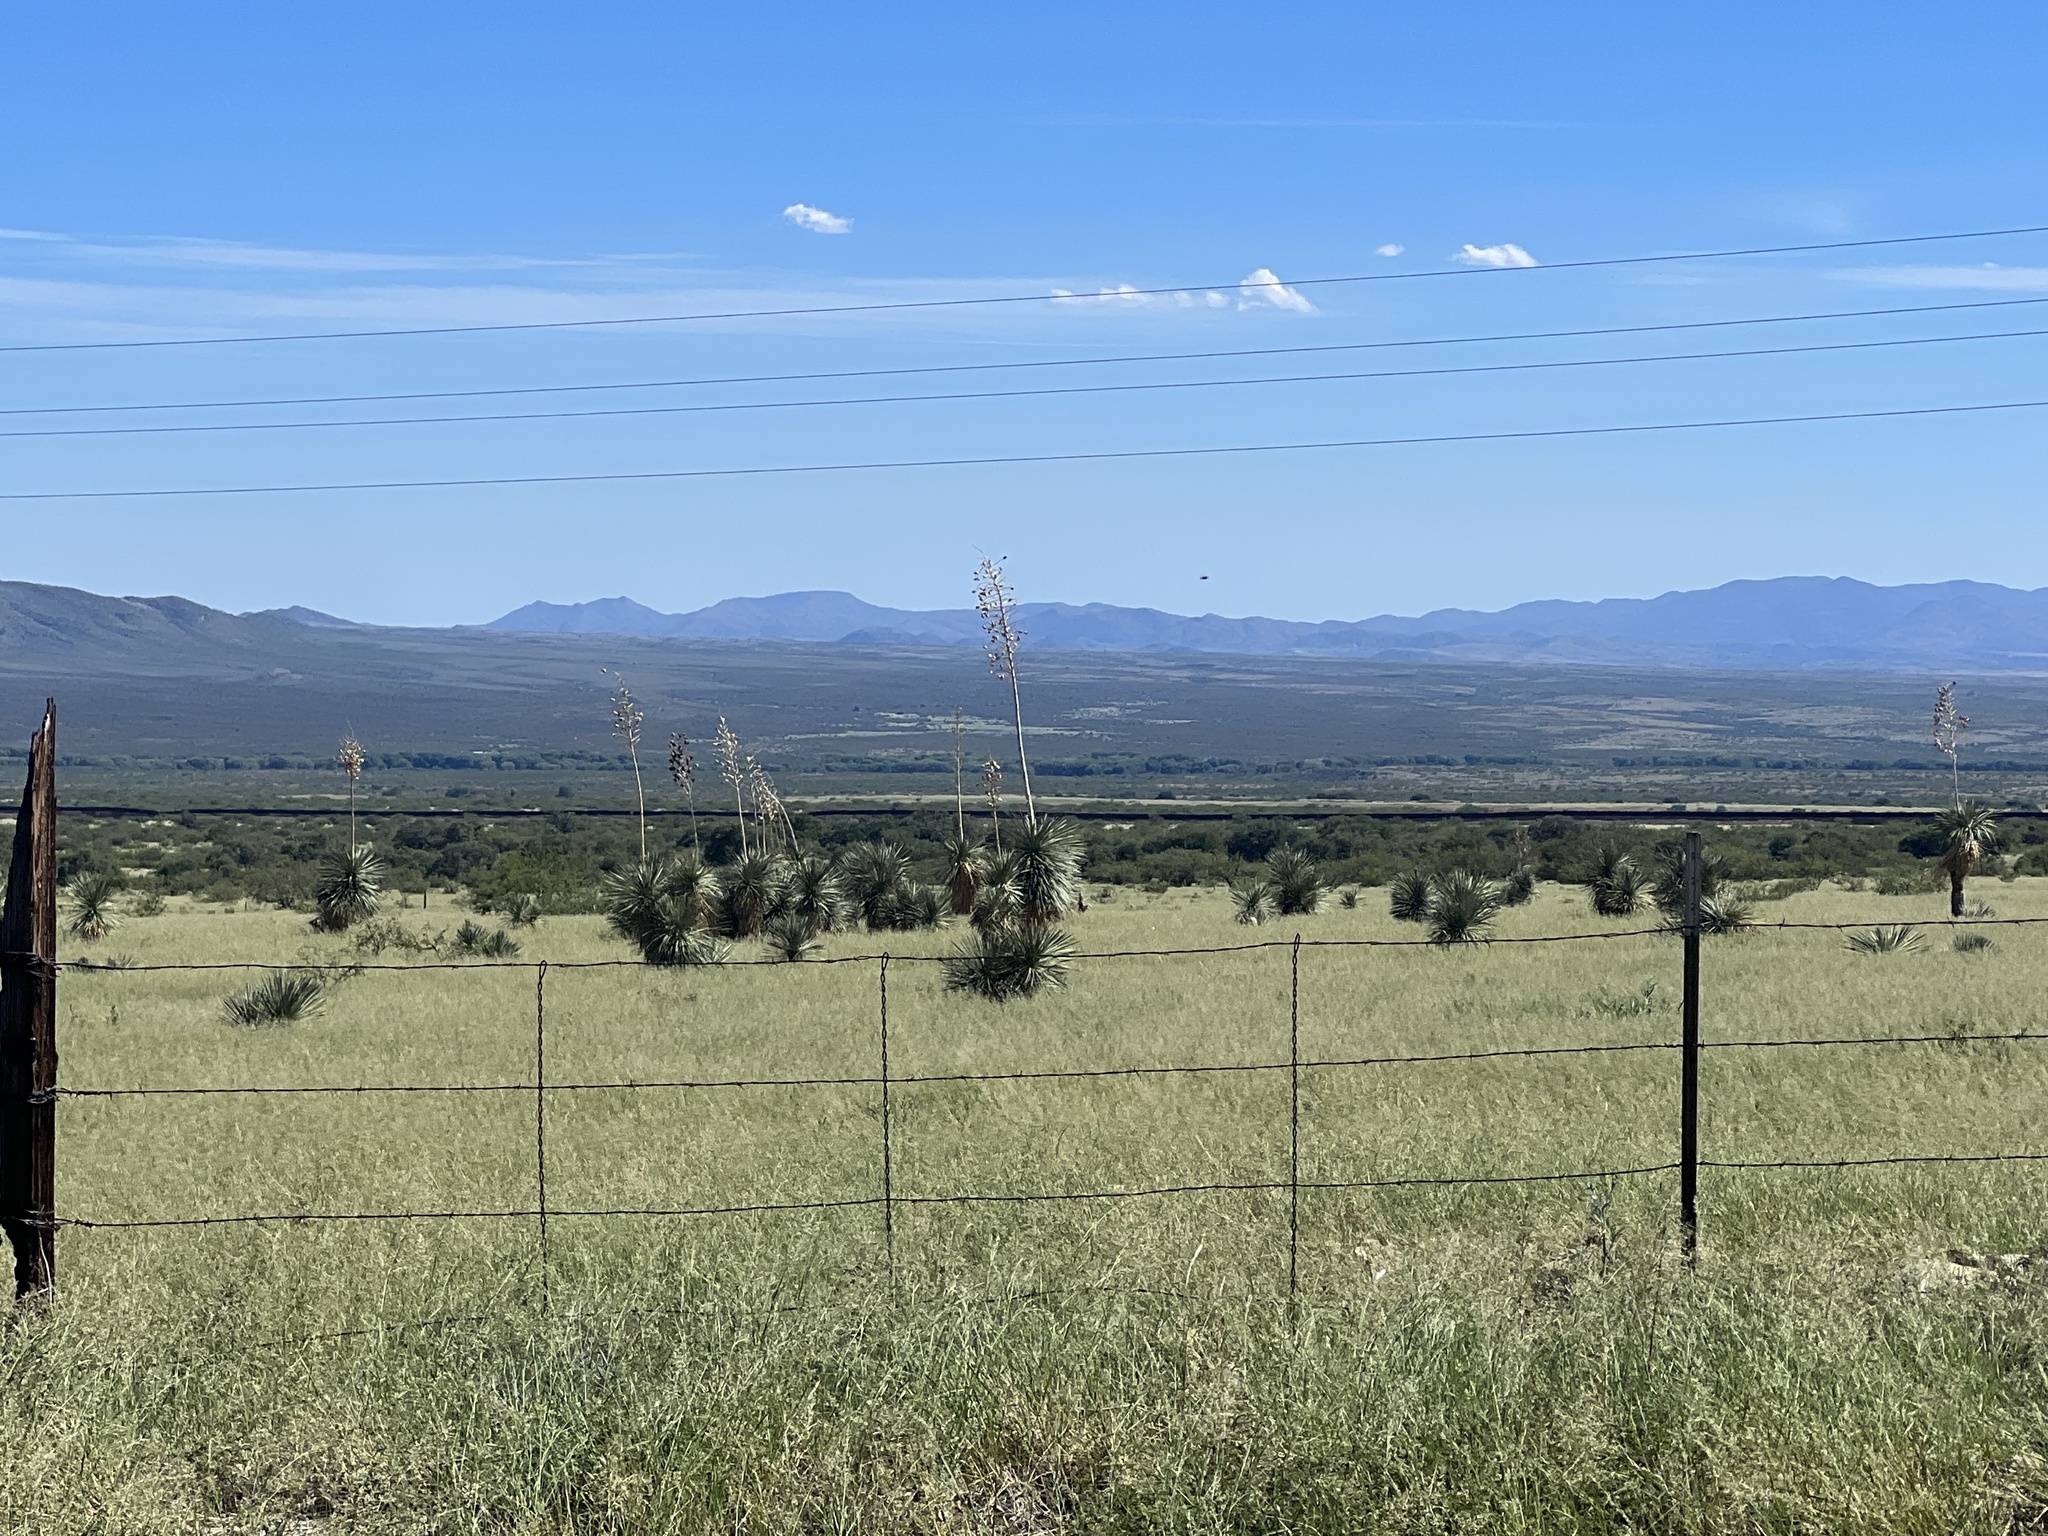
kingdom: Plantae
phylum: Tracheophyta
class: Liliopsida
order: Asparagales
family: Asparagaceae
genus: Yucca
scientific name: Yucca elata
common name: Palmella
